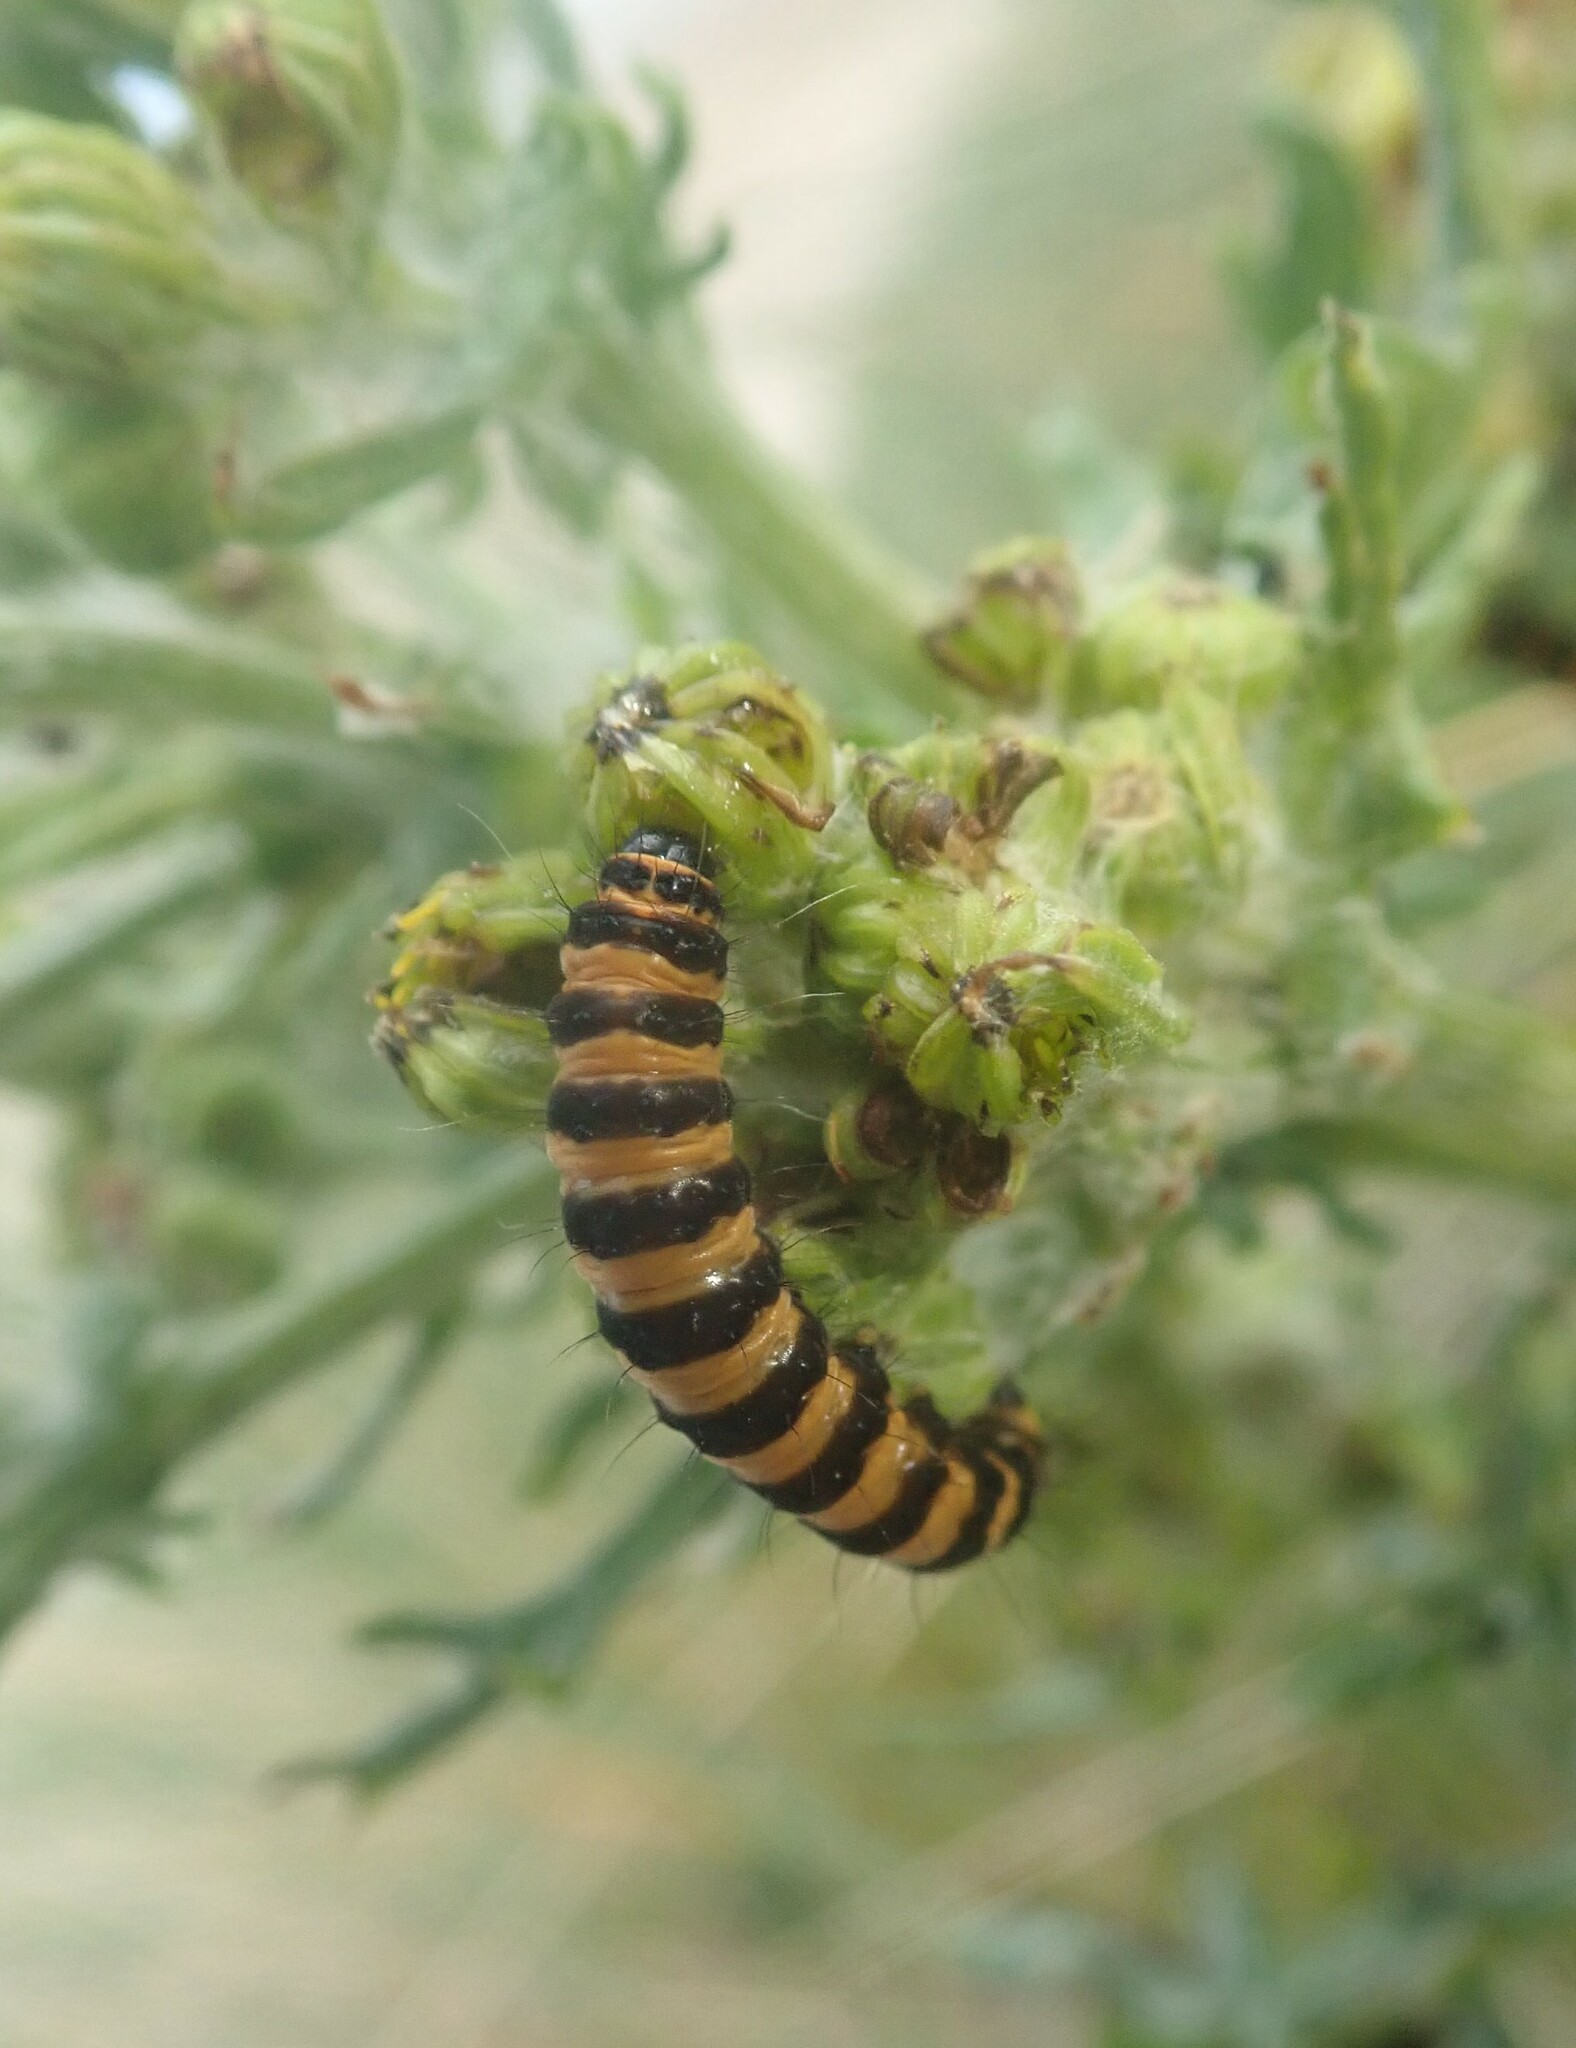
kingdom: Animalia
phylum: Arthropoda
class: Insecta
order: Lepidoptera
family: Erebidae
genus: Tyria
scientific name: Tyria jacobaeae
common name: Cinnabar
